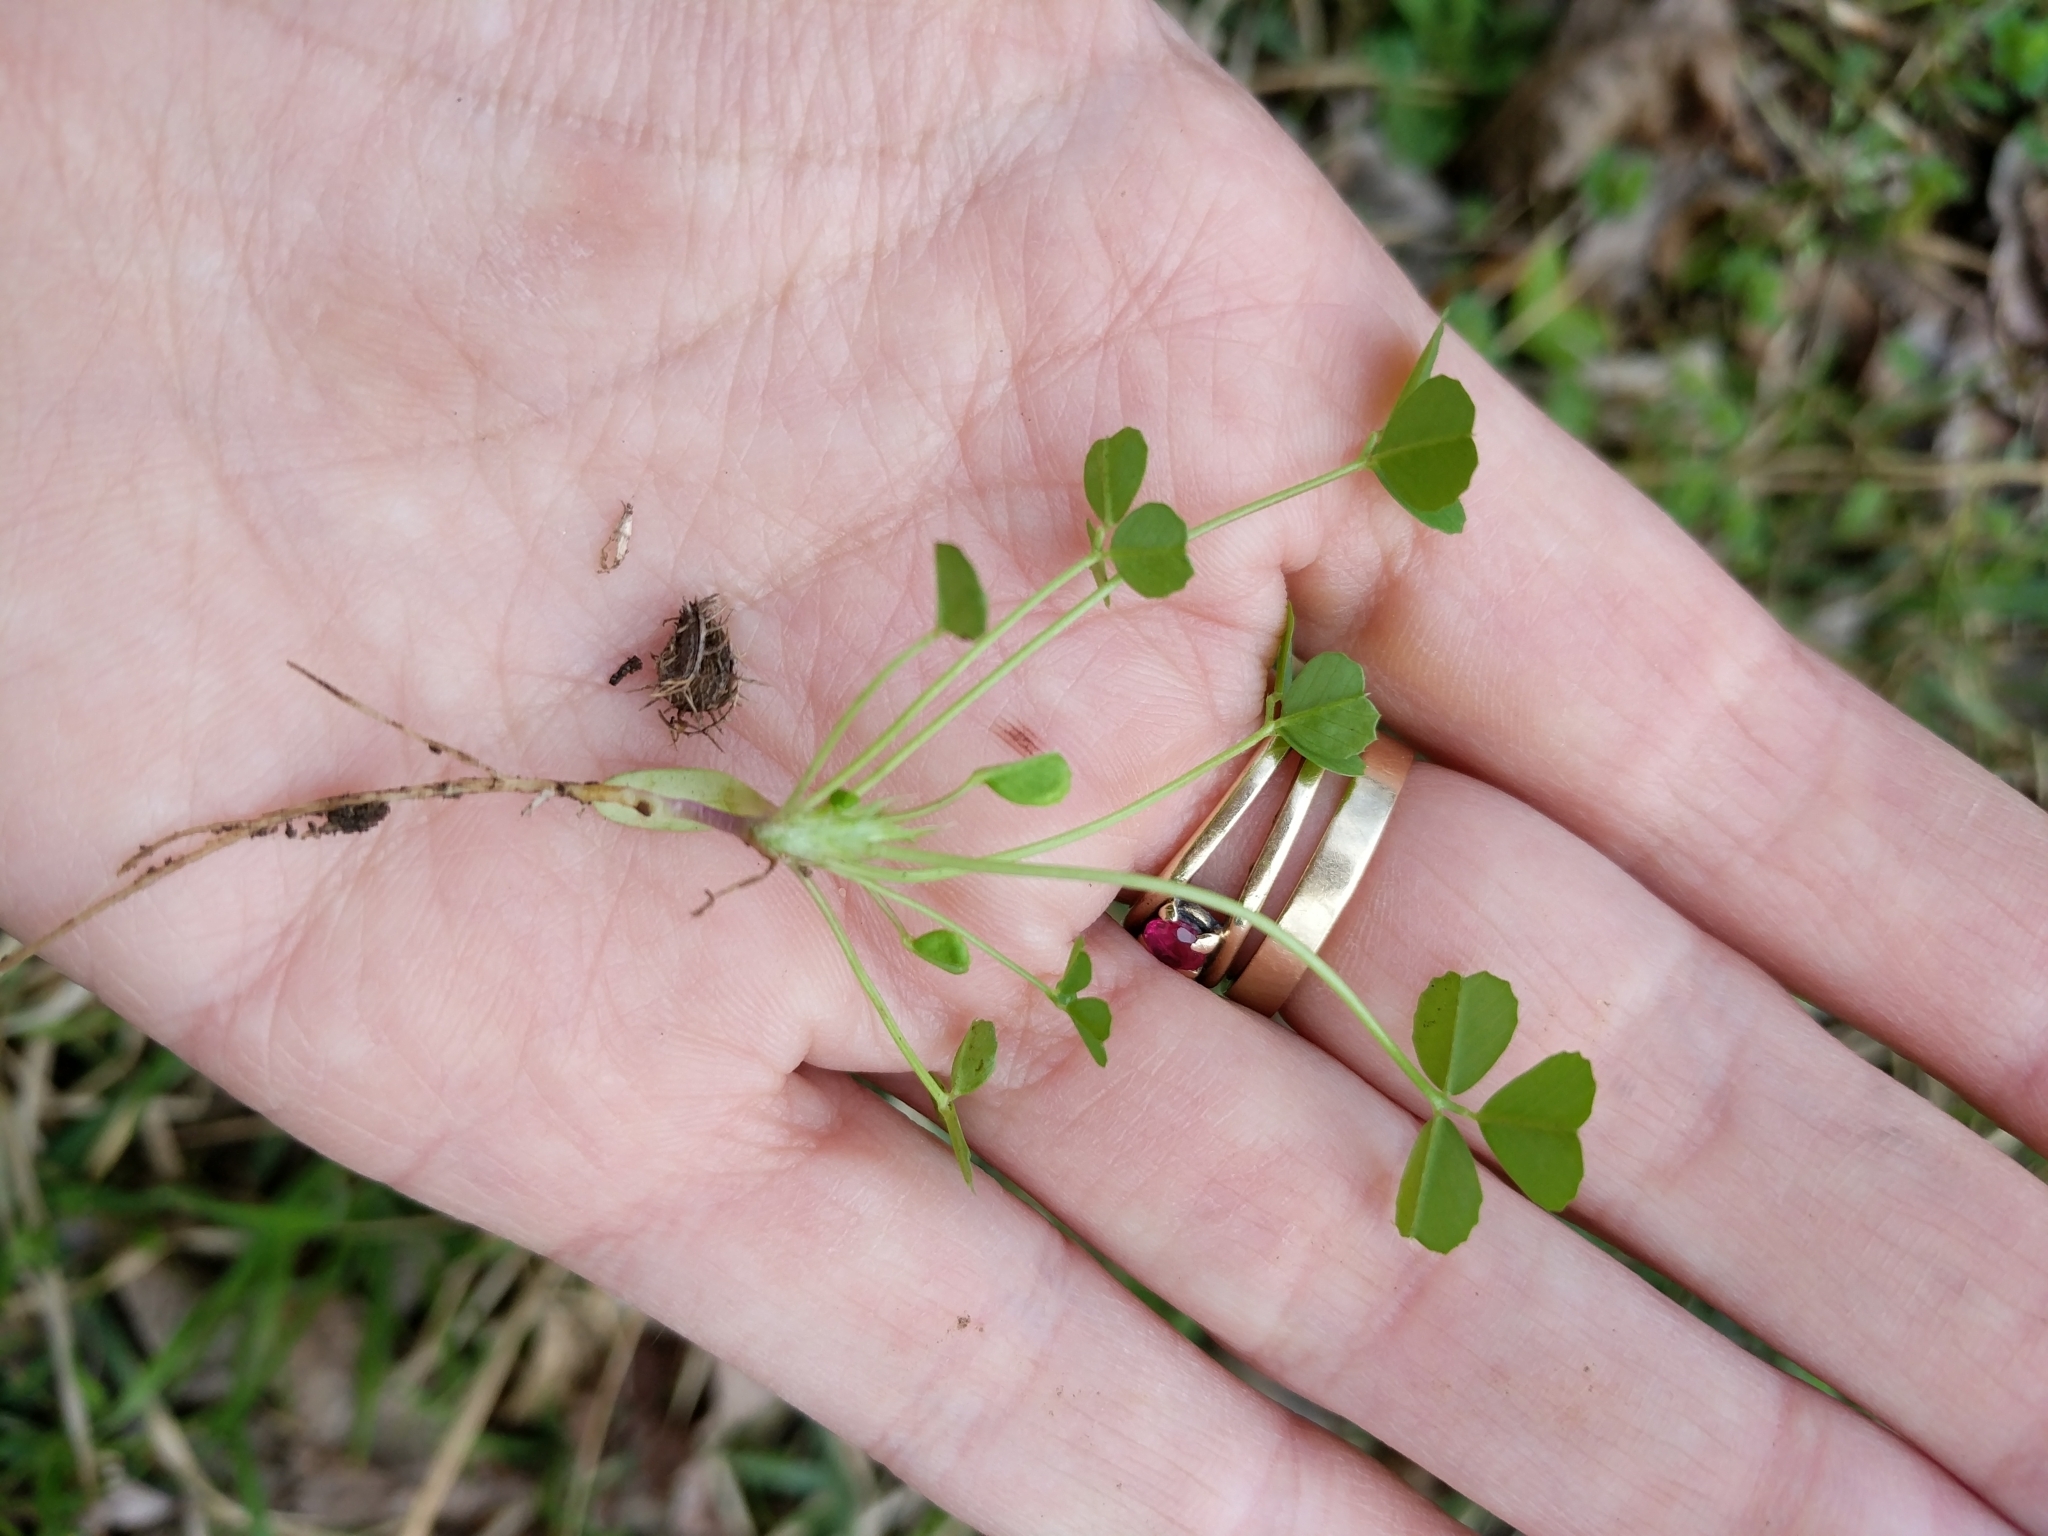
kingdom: Plantae
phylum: Tracheophyta
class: Magnoliopsida
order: Fabales
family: Fabaceae
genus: Medicago
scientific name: Medicago polymorpha
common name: Burclover
